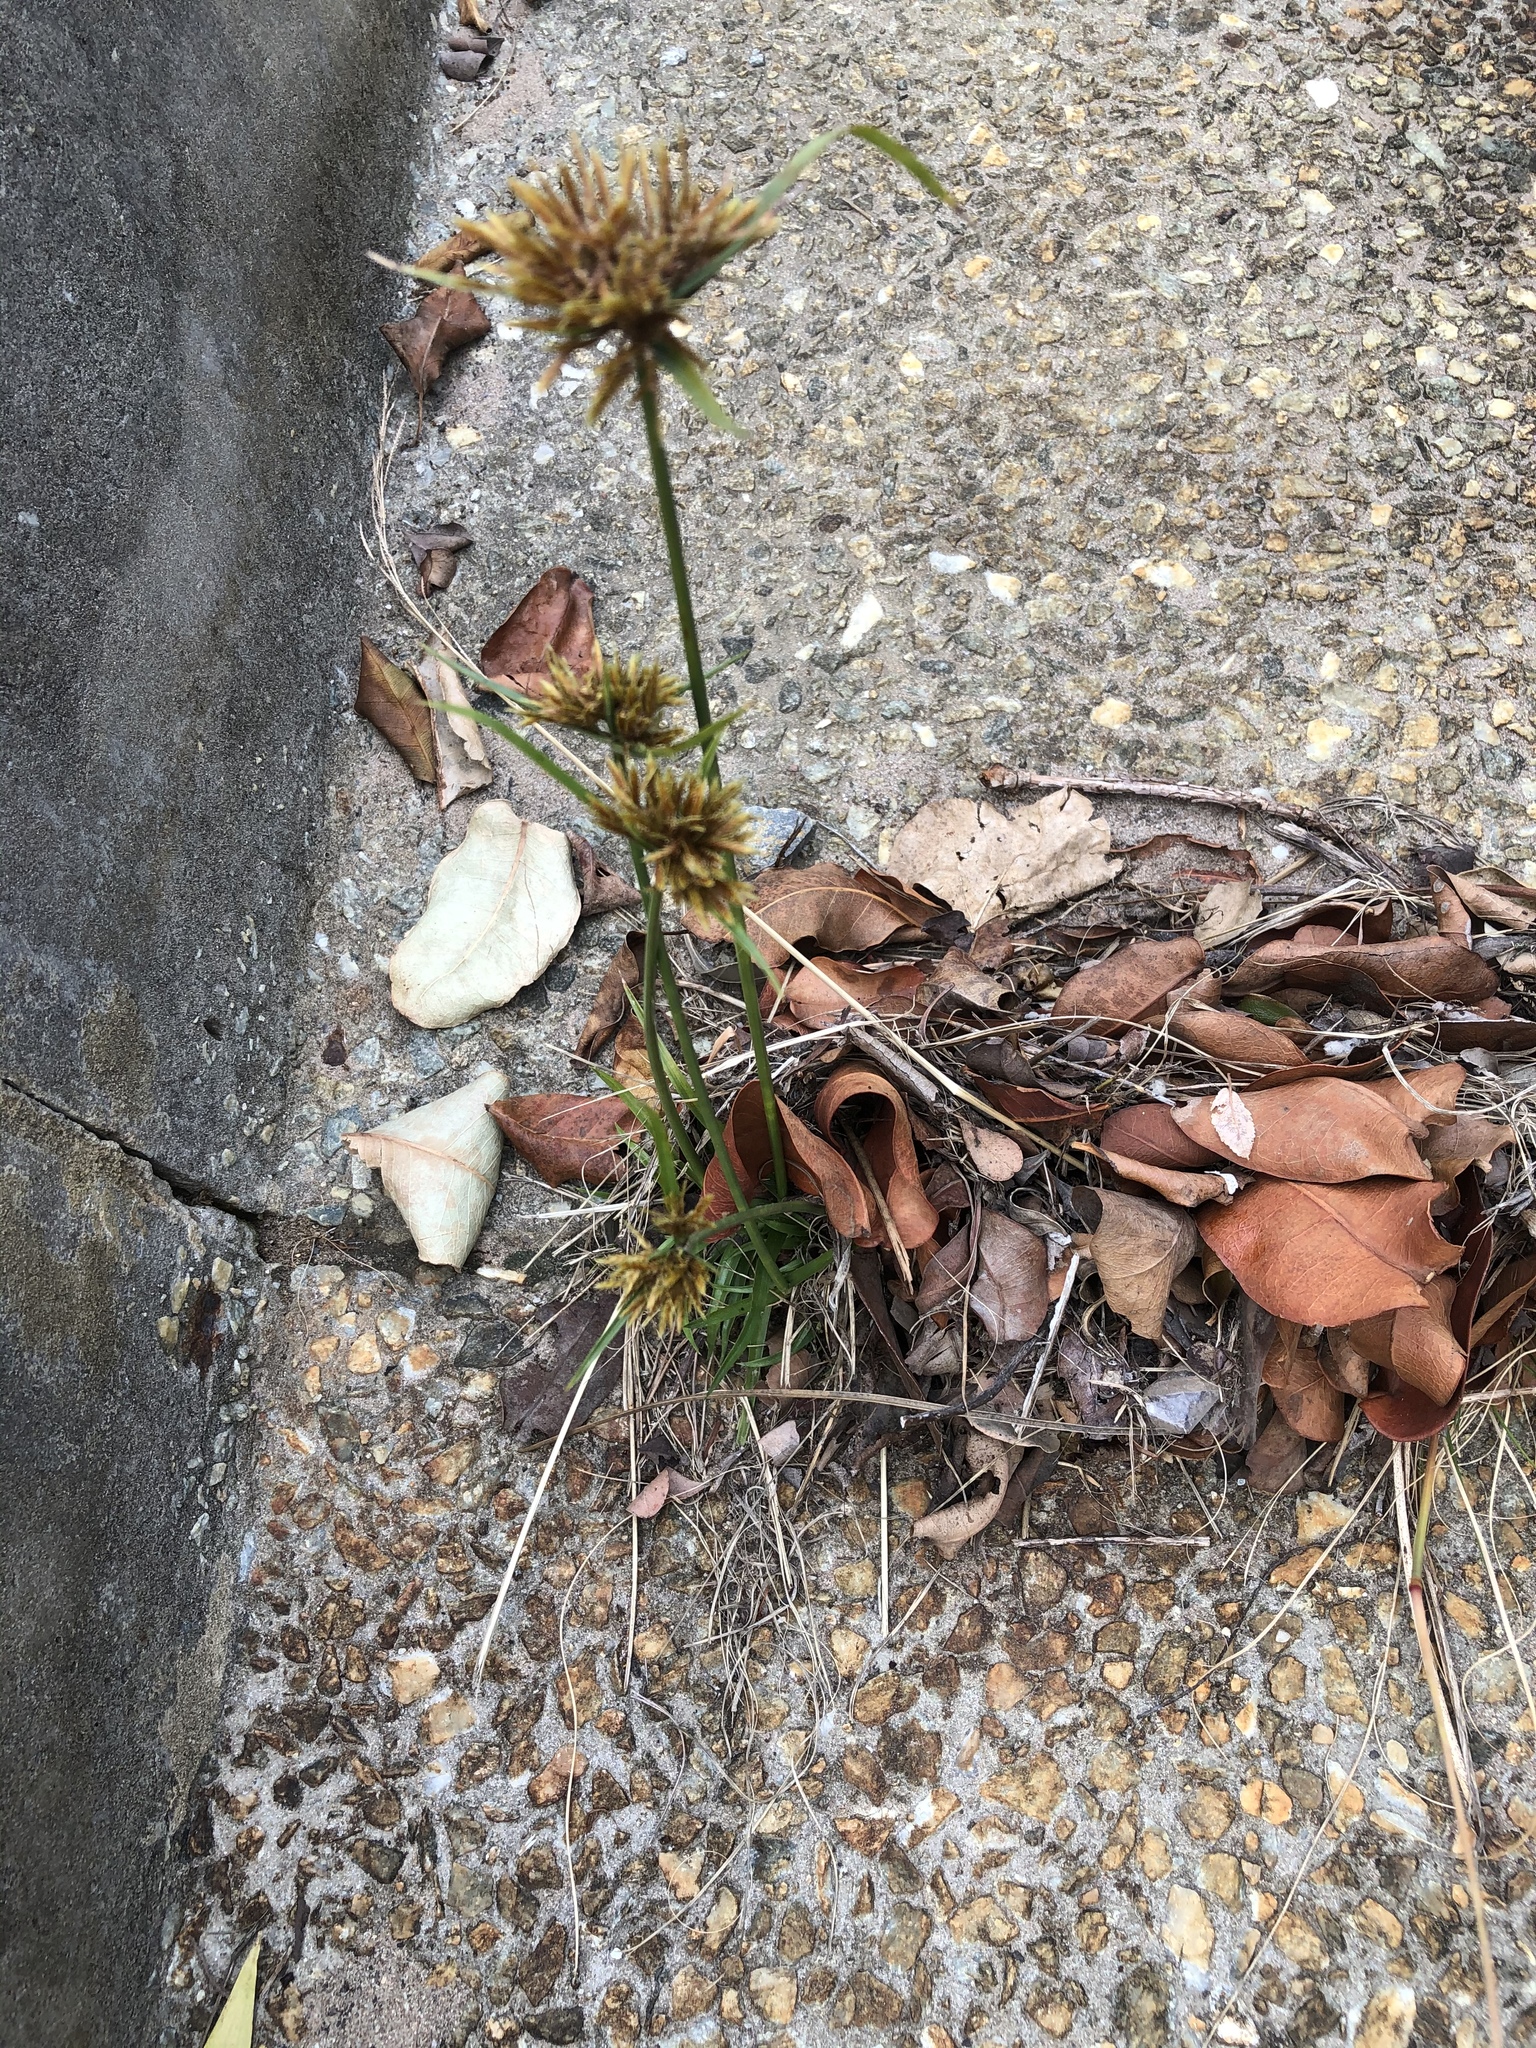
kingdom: Plantae
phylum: Tracheophyta
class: Liliopsida
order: Poales
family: Cyperaceae
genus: Cyperus
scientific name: Cyperus polystachyos
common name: Bunchy flat sedge
